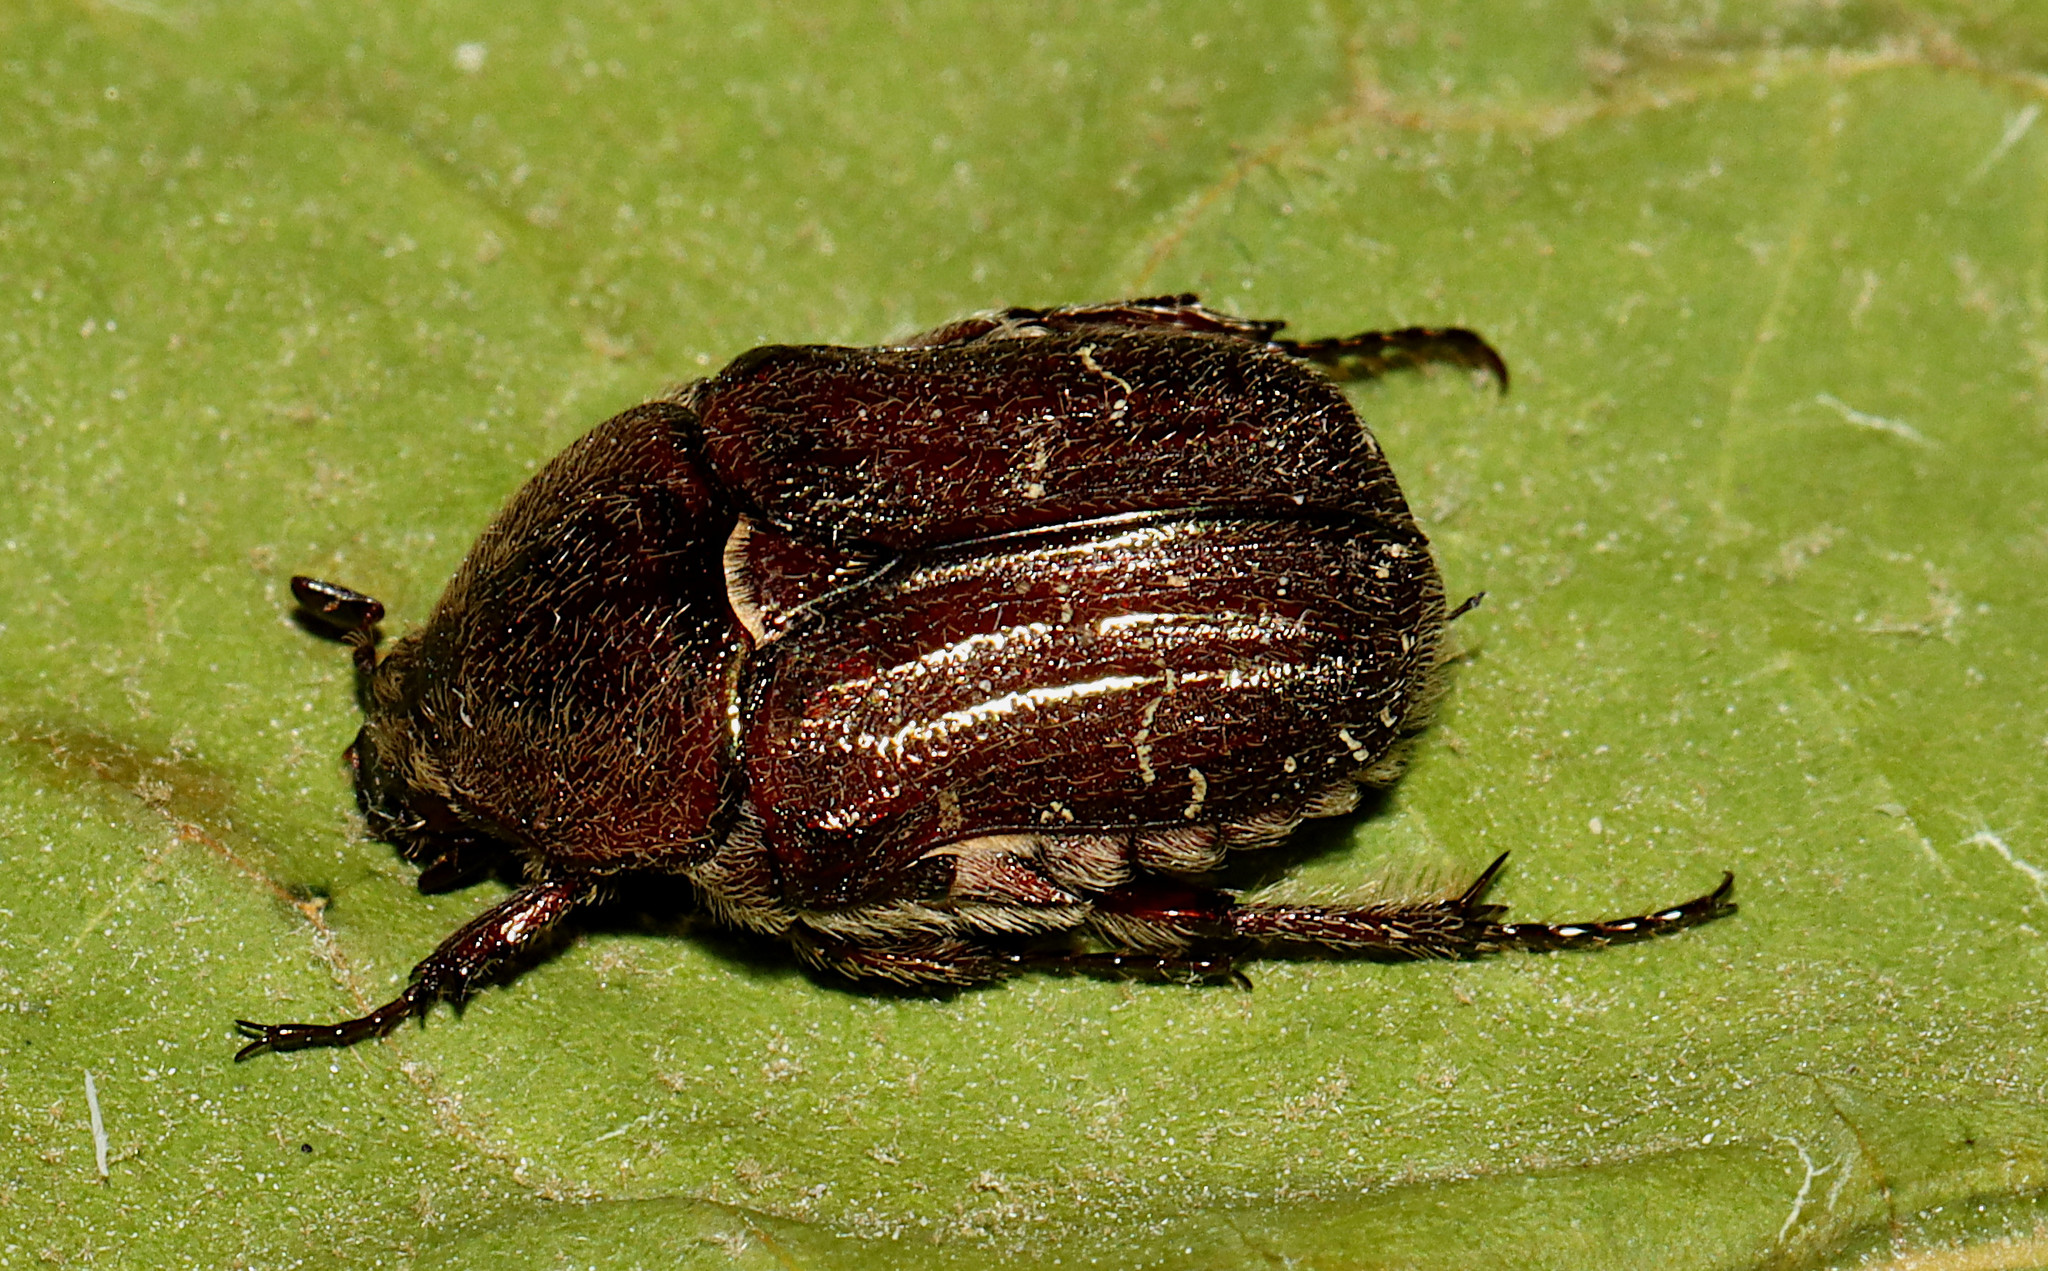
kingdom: Animalia
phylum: Arthropoda
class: Insecta
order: Coleoptera
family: Scarabaeidae
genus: Euphoria
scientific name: Euphoria sepulcralis
